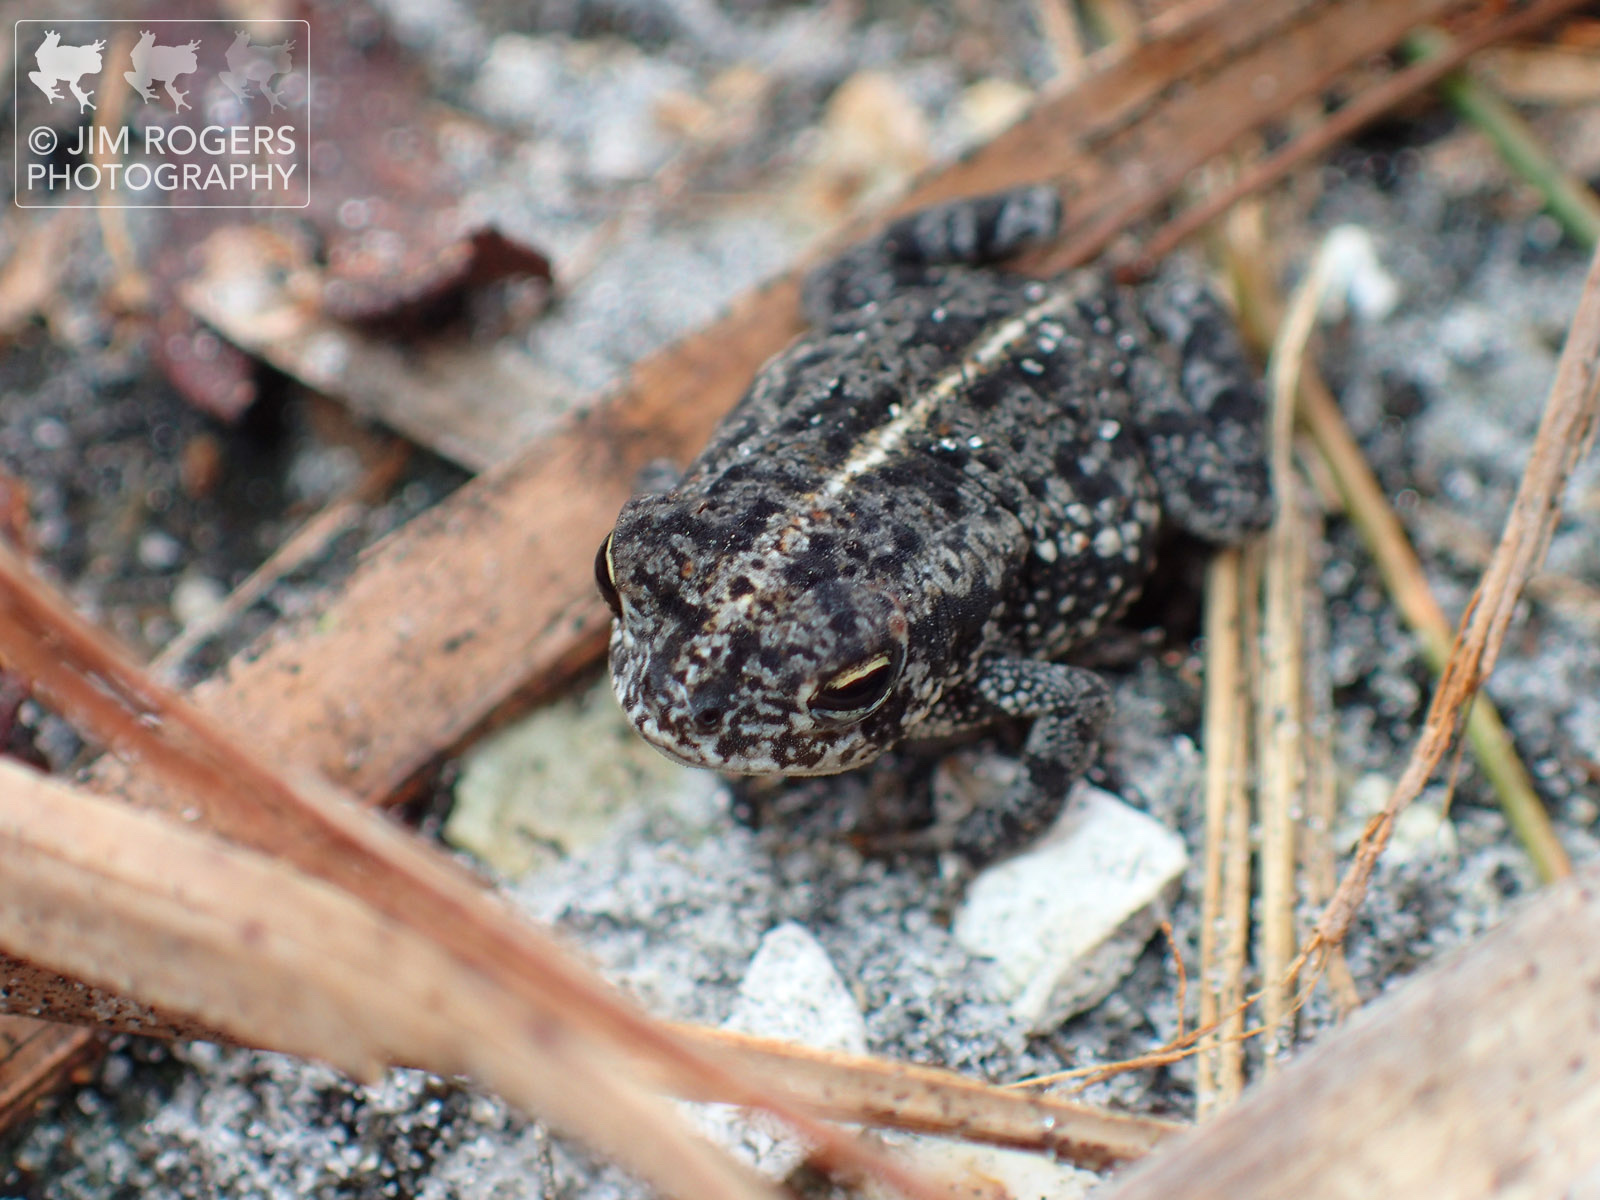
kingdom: Animalia
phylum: Chordata
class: Amphibia
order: Anura
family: Bufonidae
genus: Anaxyrus
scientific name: Anaxyrus quercicus
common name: Oak toad
